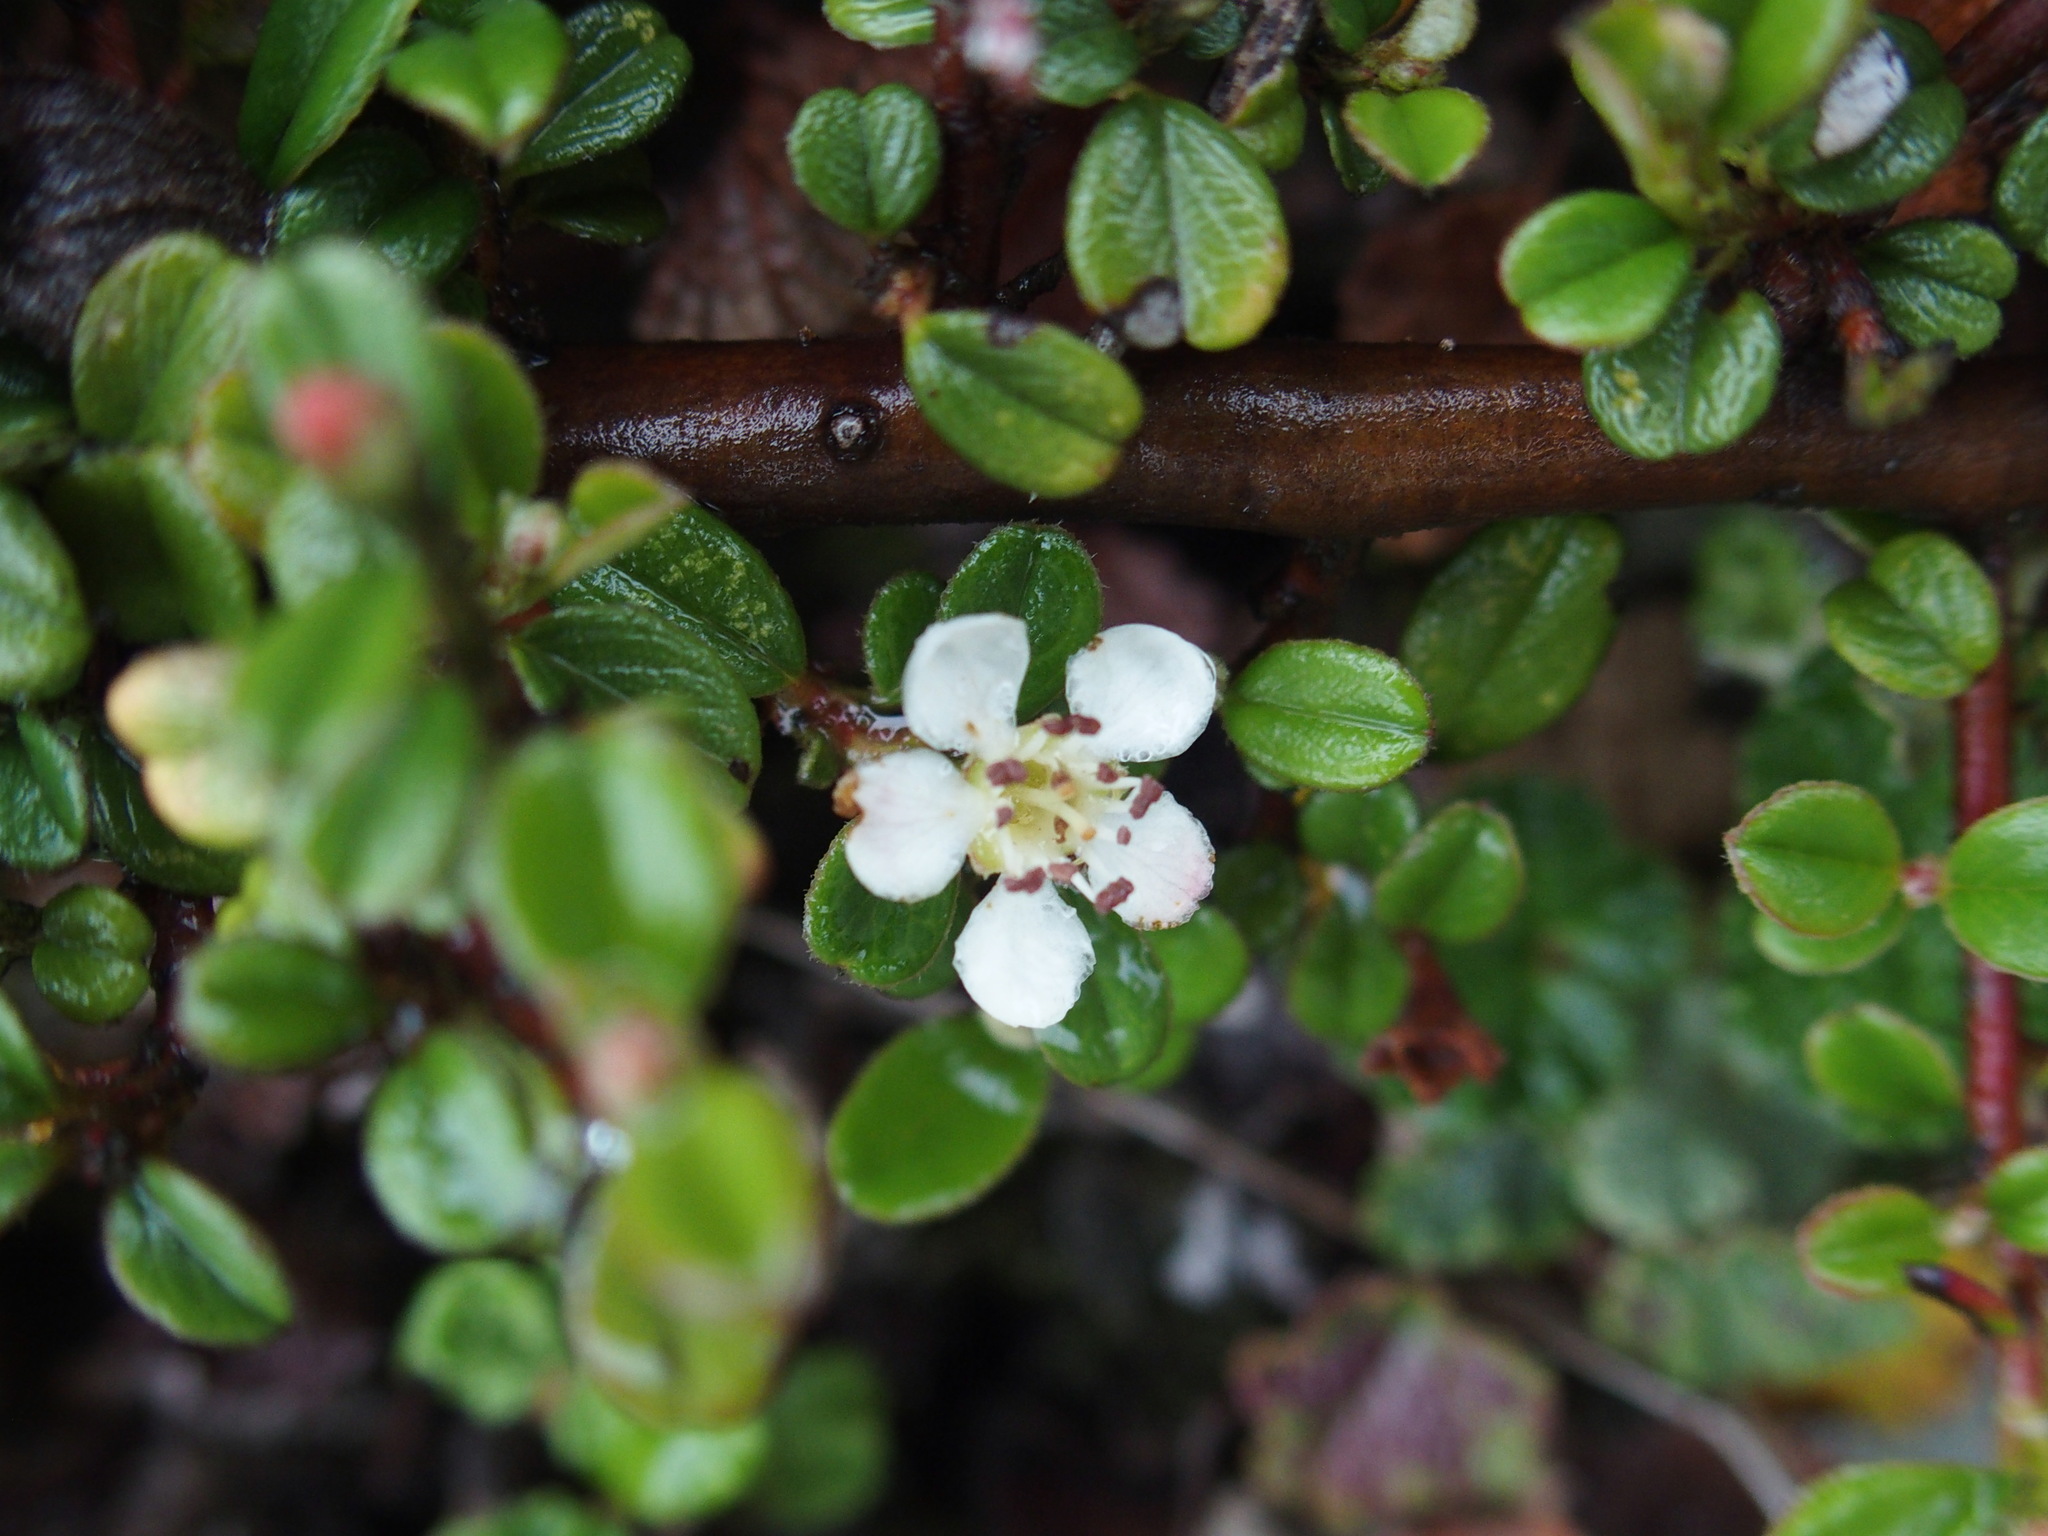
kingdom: Plantae
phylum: Tracheophyta
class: Magnoliopsida
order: Rosales
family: Rosaceae
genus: Cotoneaster
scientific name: Cotoneaster morrisonensis
